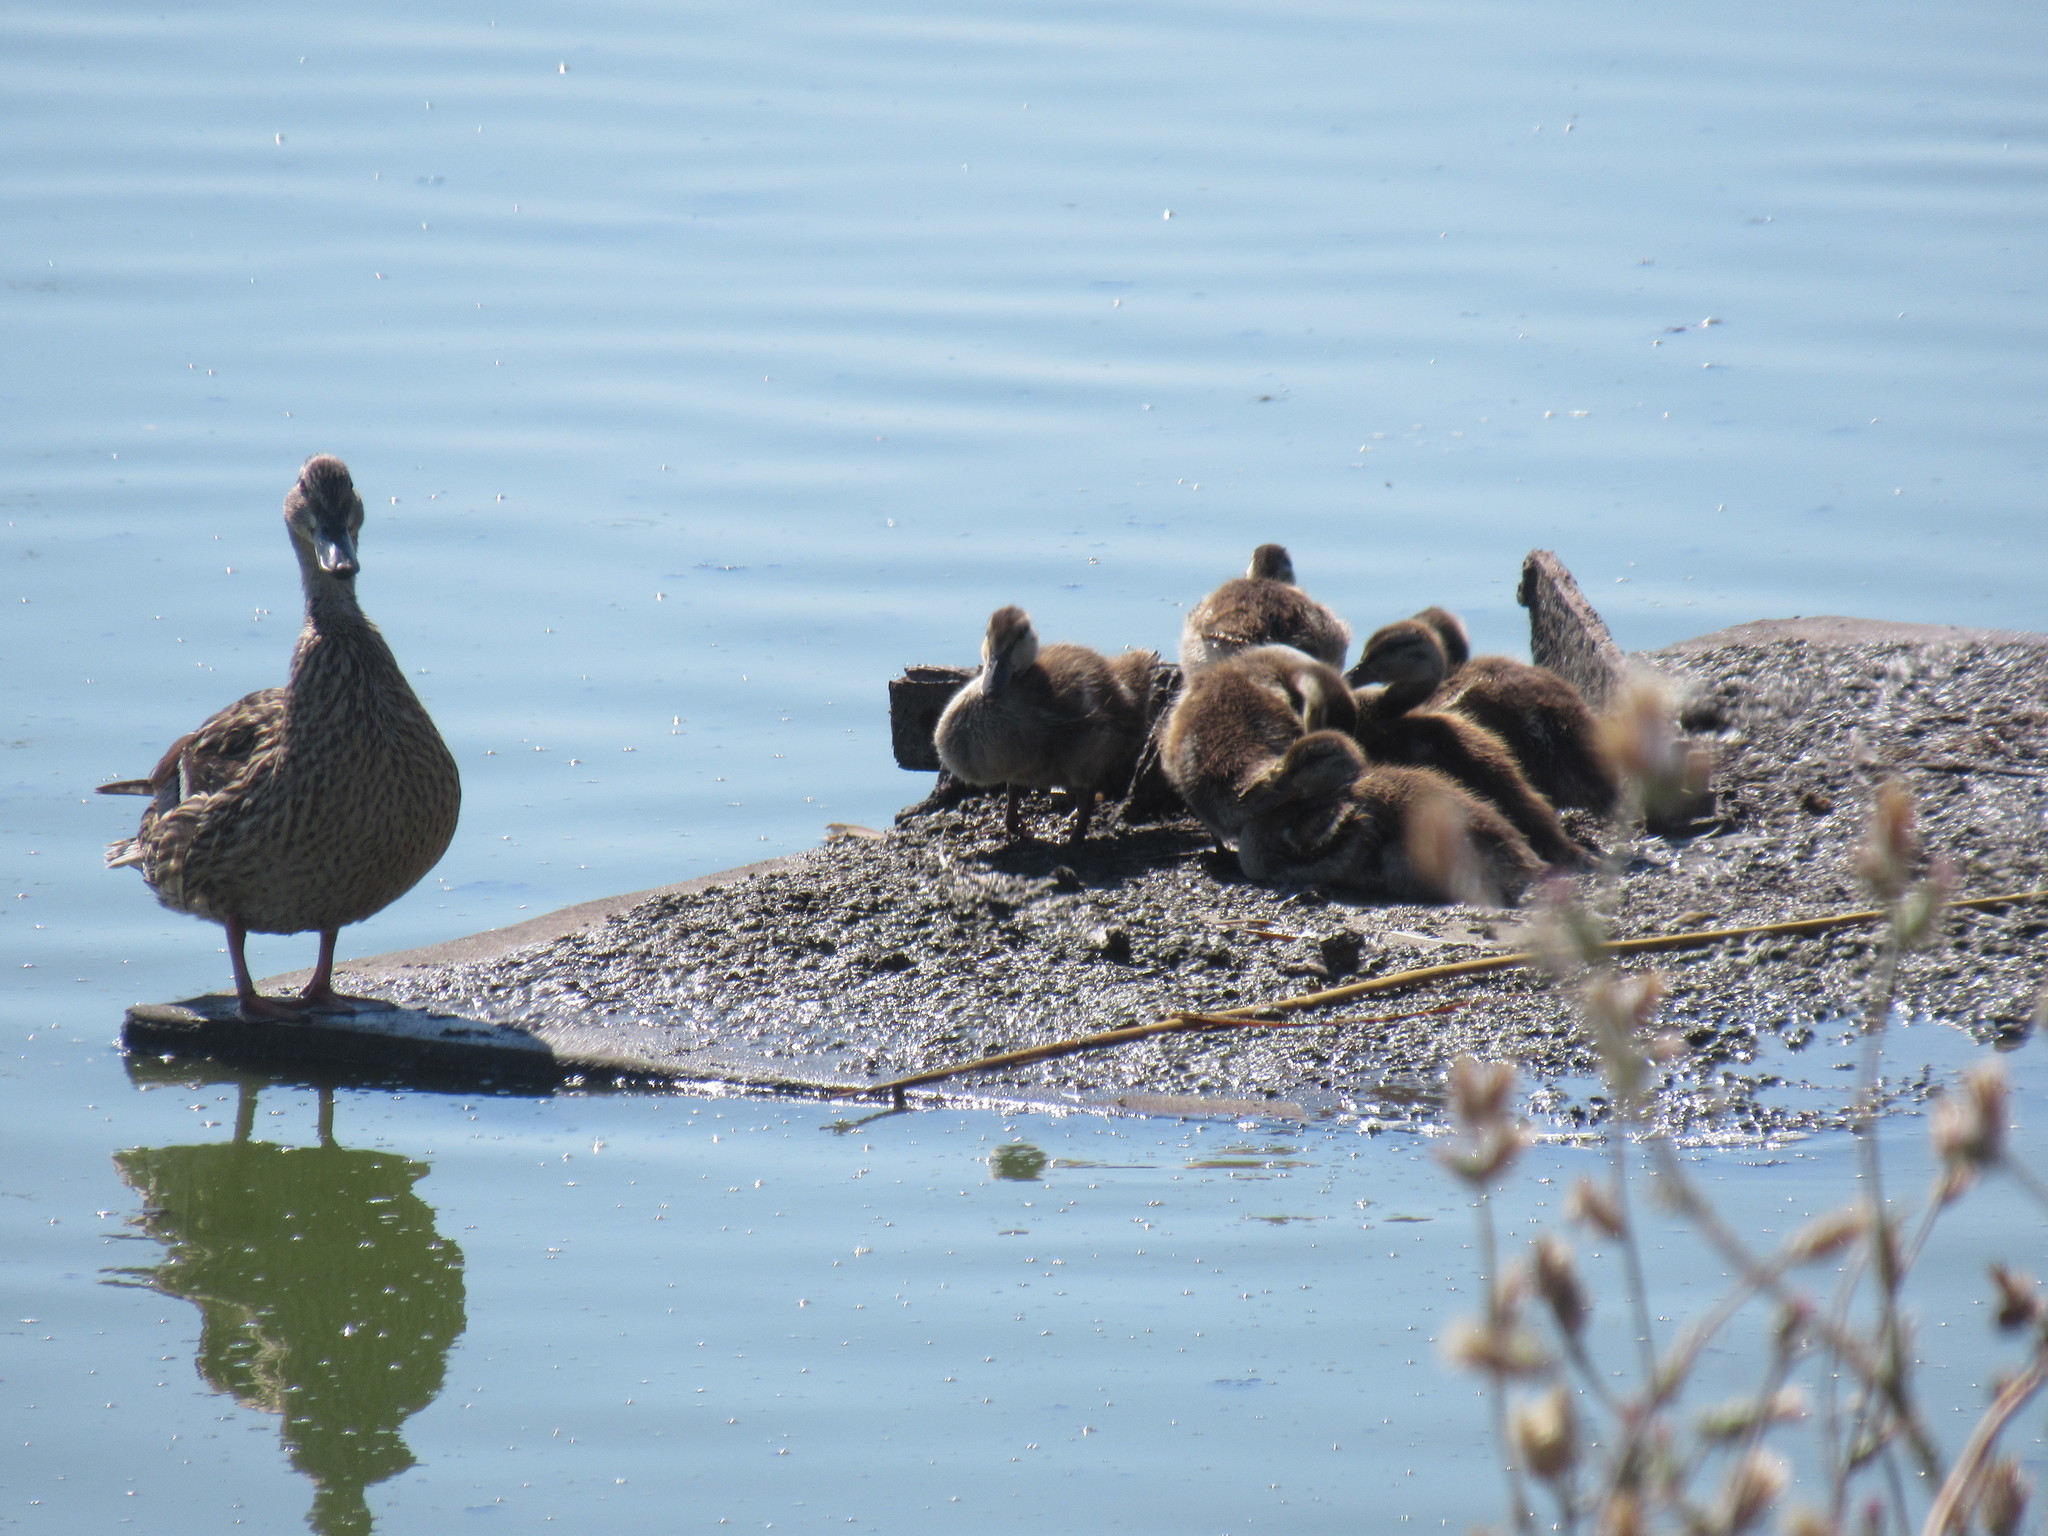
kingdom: Animalia
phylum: Chordata
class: Aves
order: Anseriformes
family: Anatidae
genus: Anas
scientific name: Anas platyrhynchos
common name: Mallard
